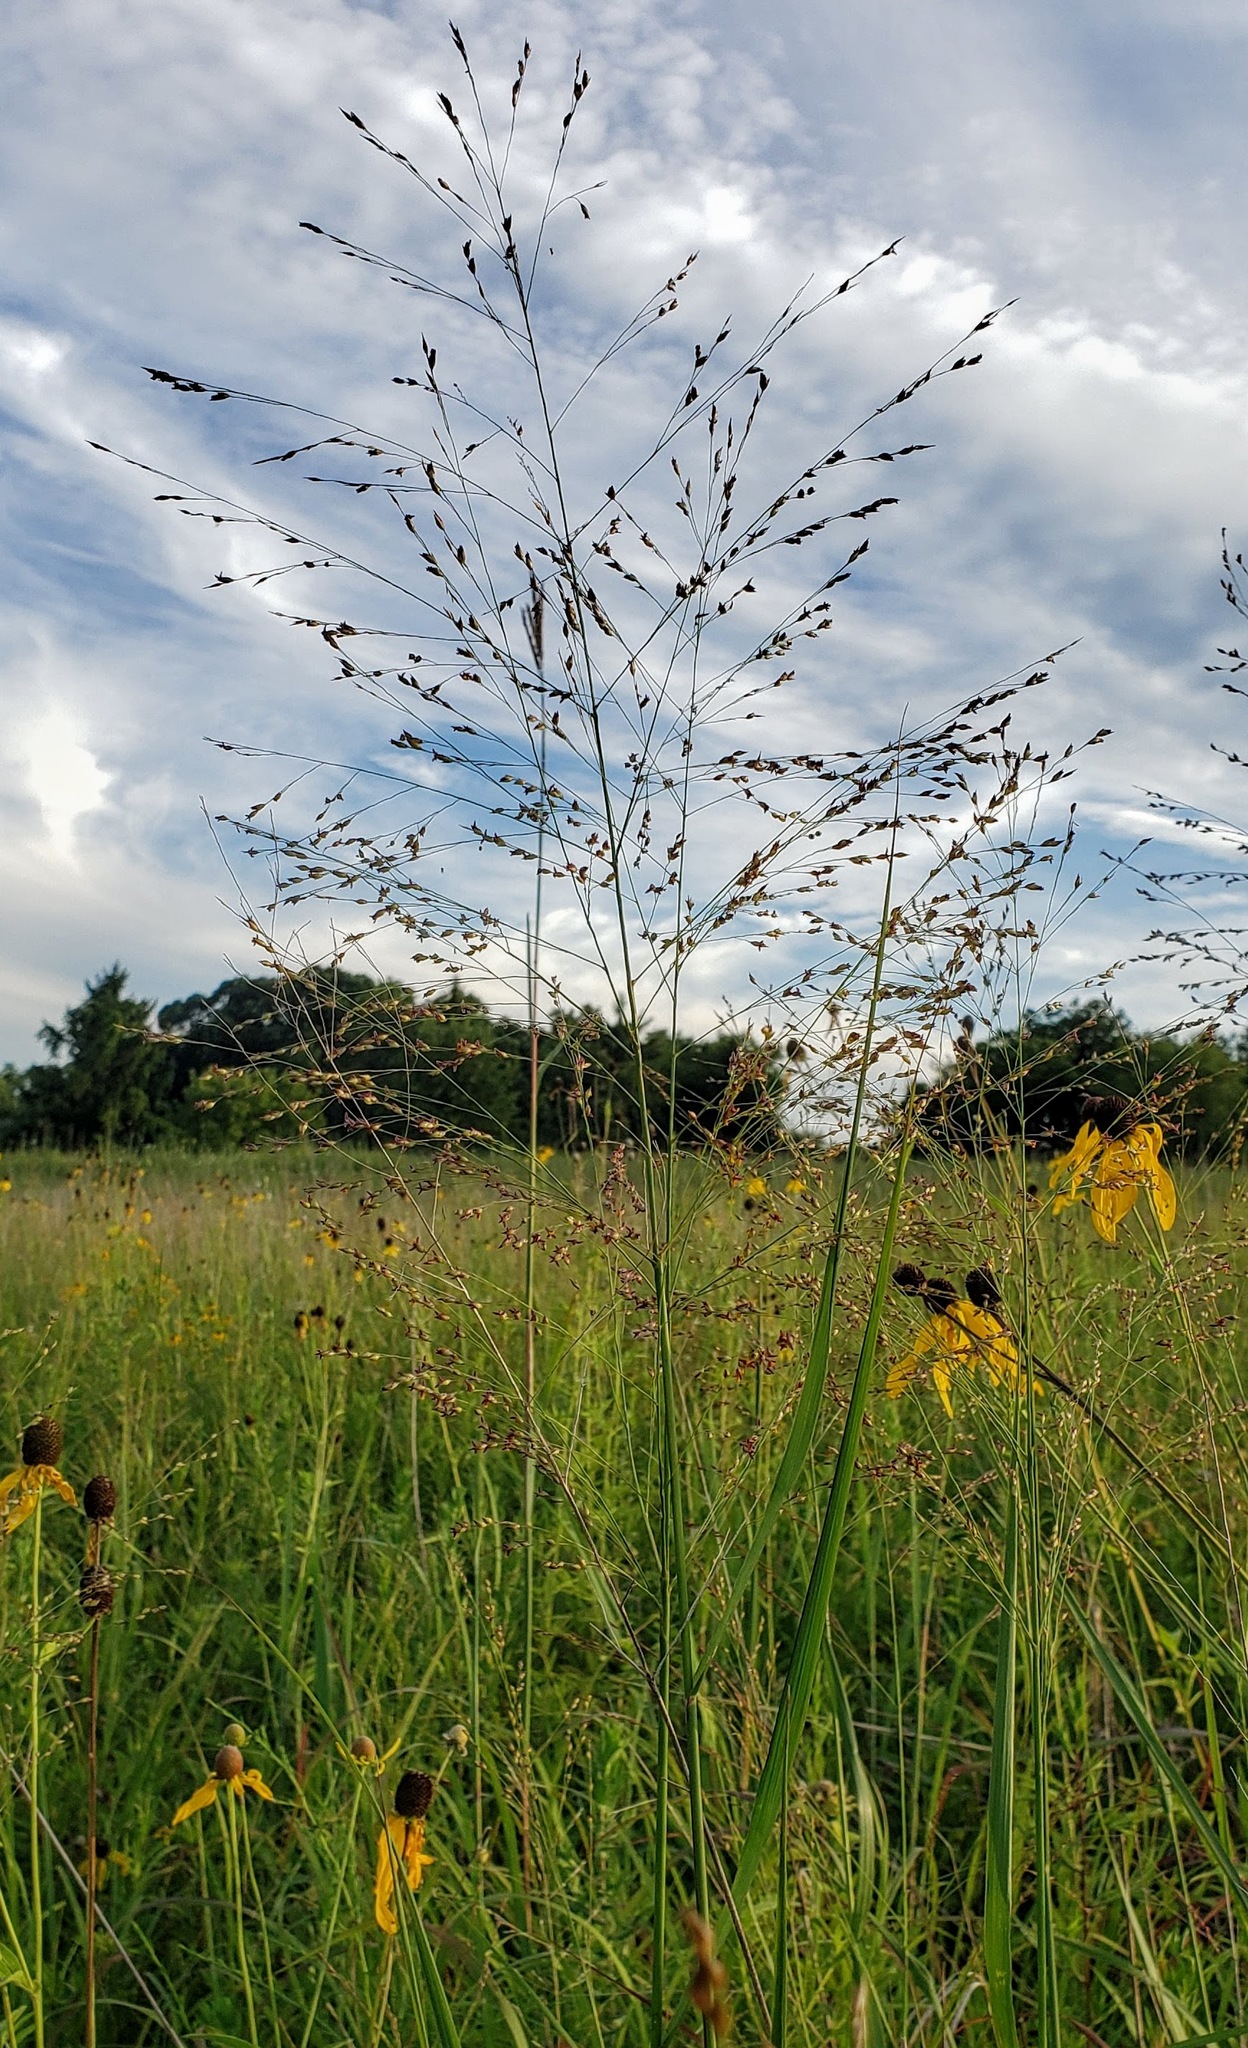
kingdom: Plantae
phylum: Tracheophyta
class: Liliopsida
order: Poales
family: Poaceae
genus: Panicum
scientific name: Panicum virgatum
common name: Switchgrass
